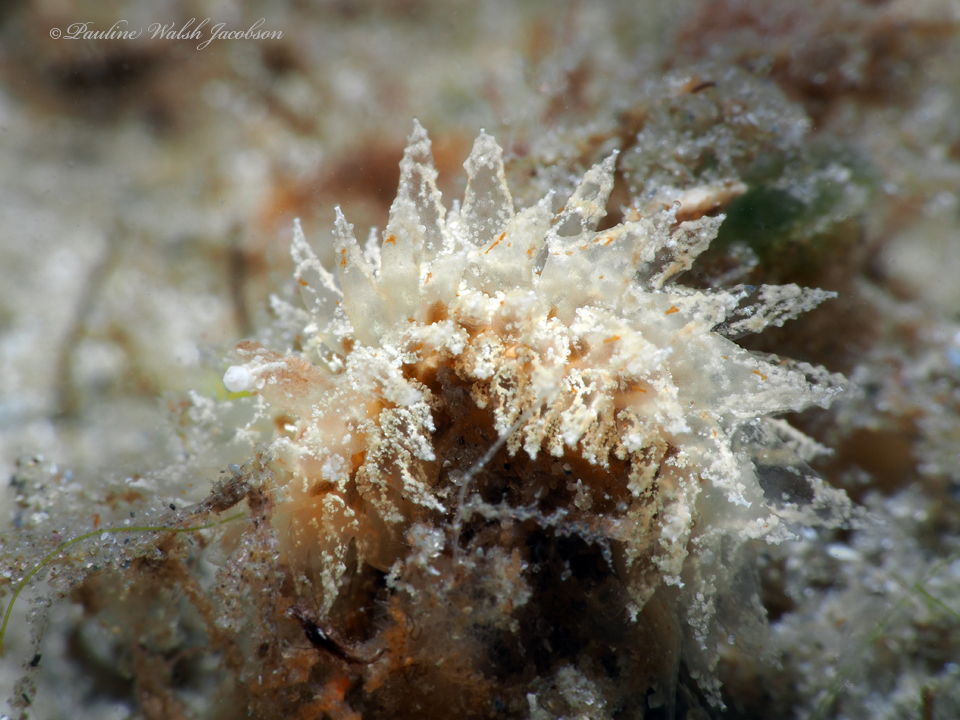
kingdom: Animalia
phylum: Mollusca
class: Gastropoda
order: Nudibranchia
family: Janolidae
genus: Janolus
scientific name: Janolus comis
